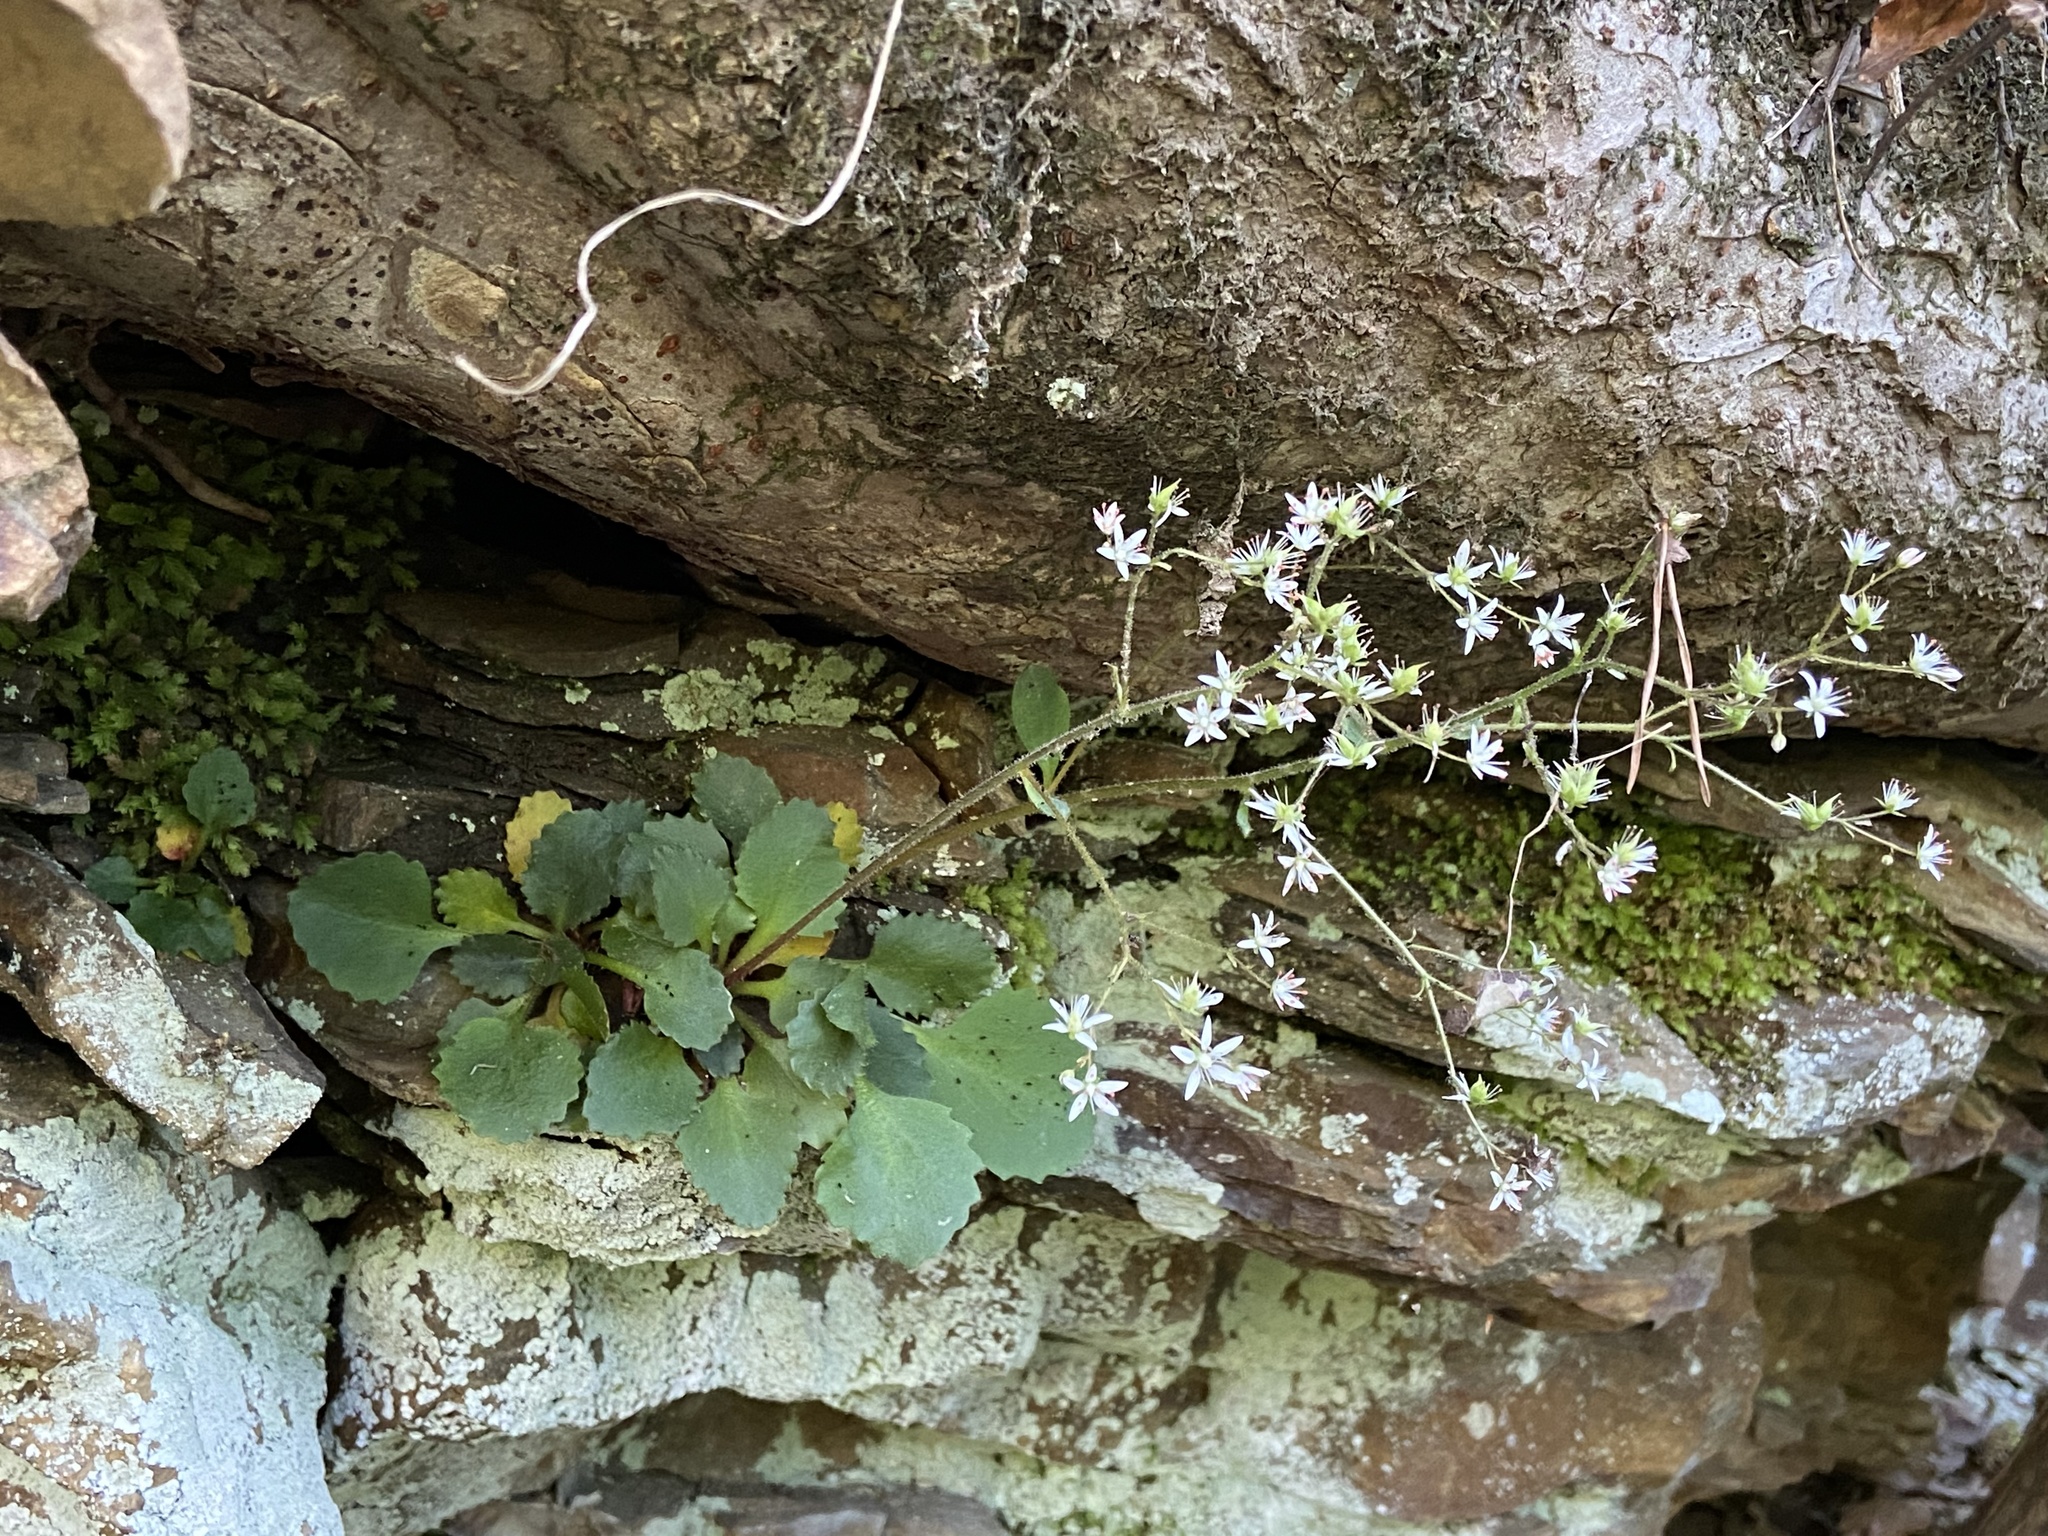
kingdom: Plantae
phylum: Tracheophyta
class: Magnoliopsida
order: Saxifragales
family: Saxifragaceae
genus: Micranthes
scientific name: Micranthes careyana
